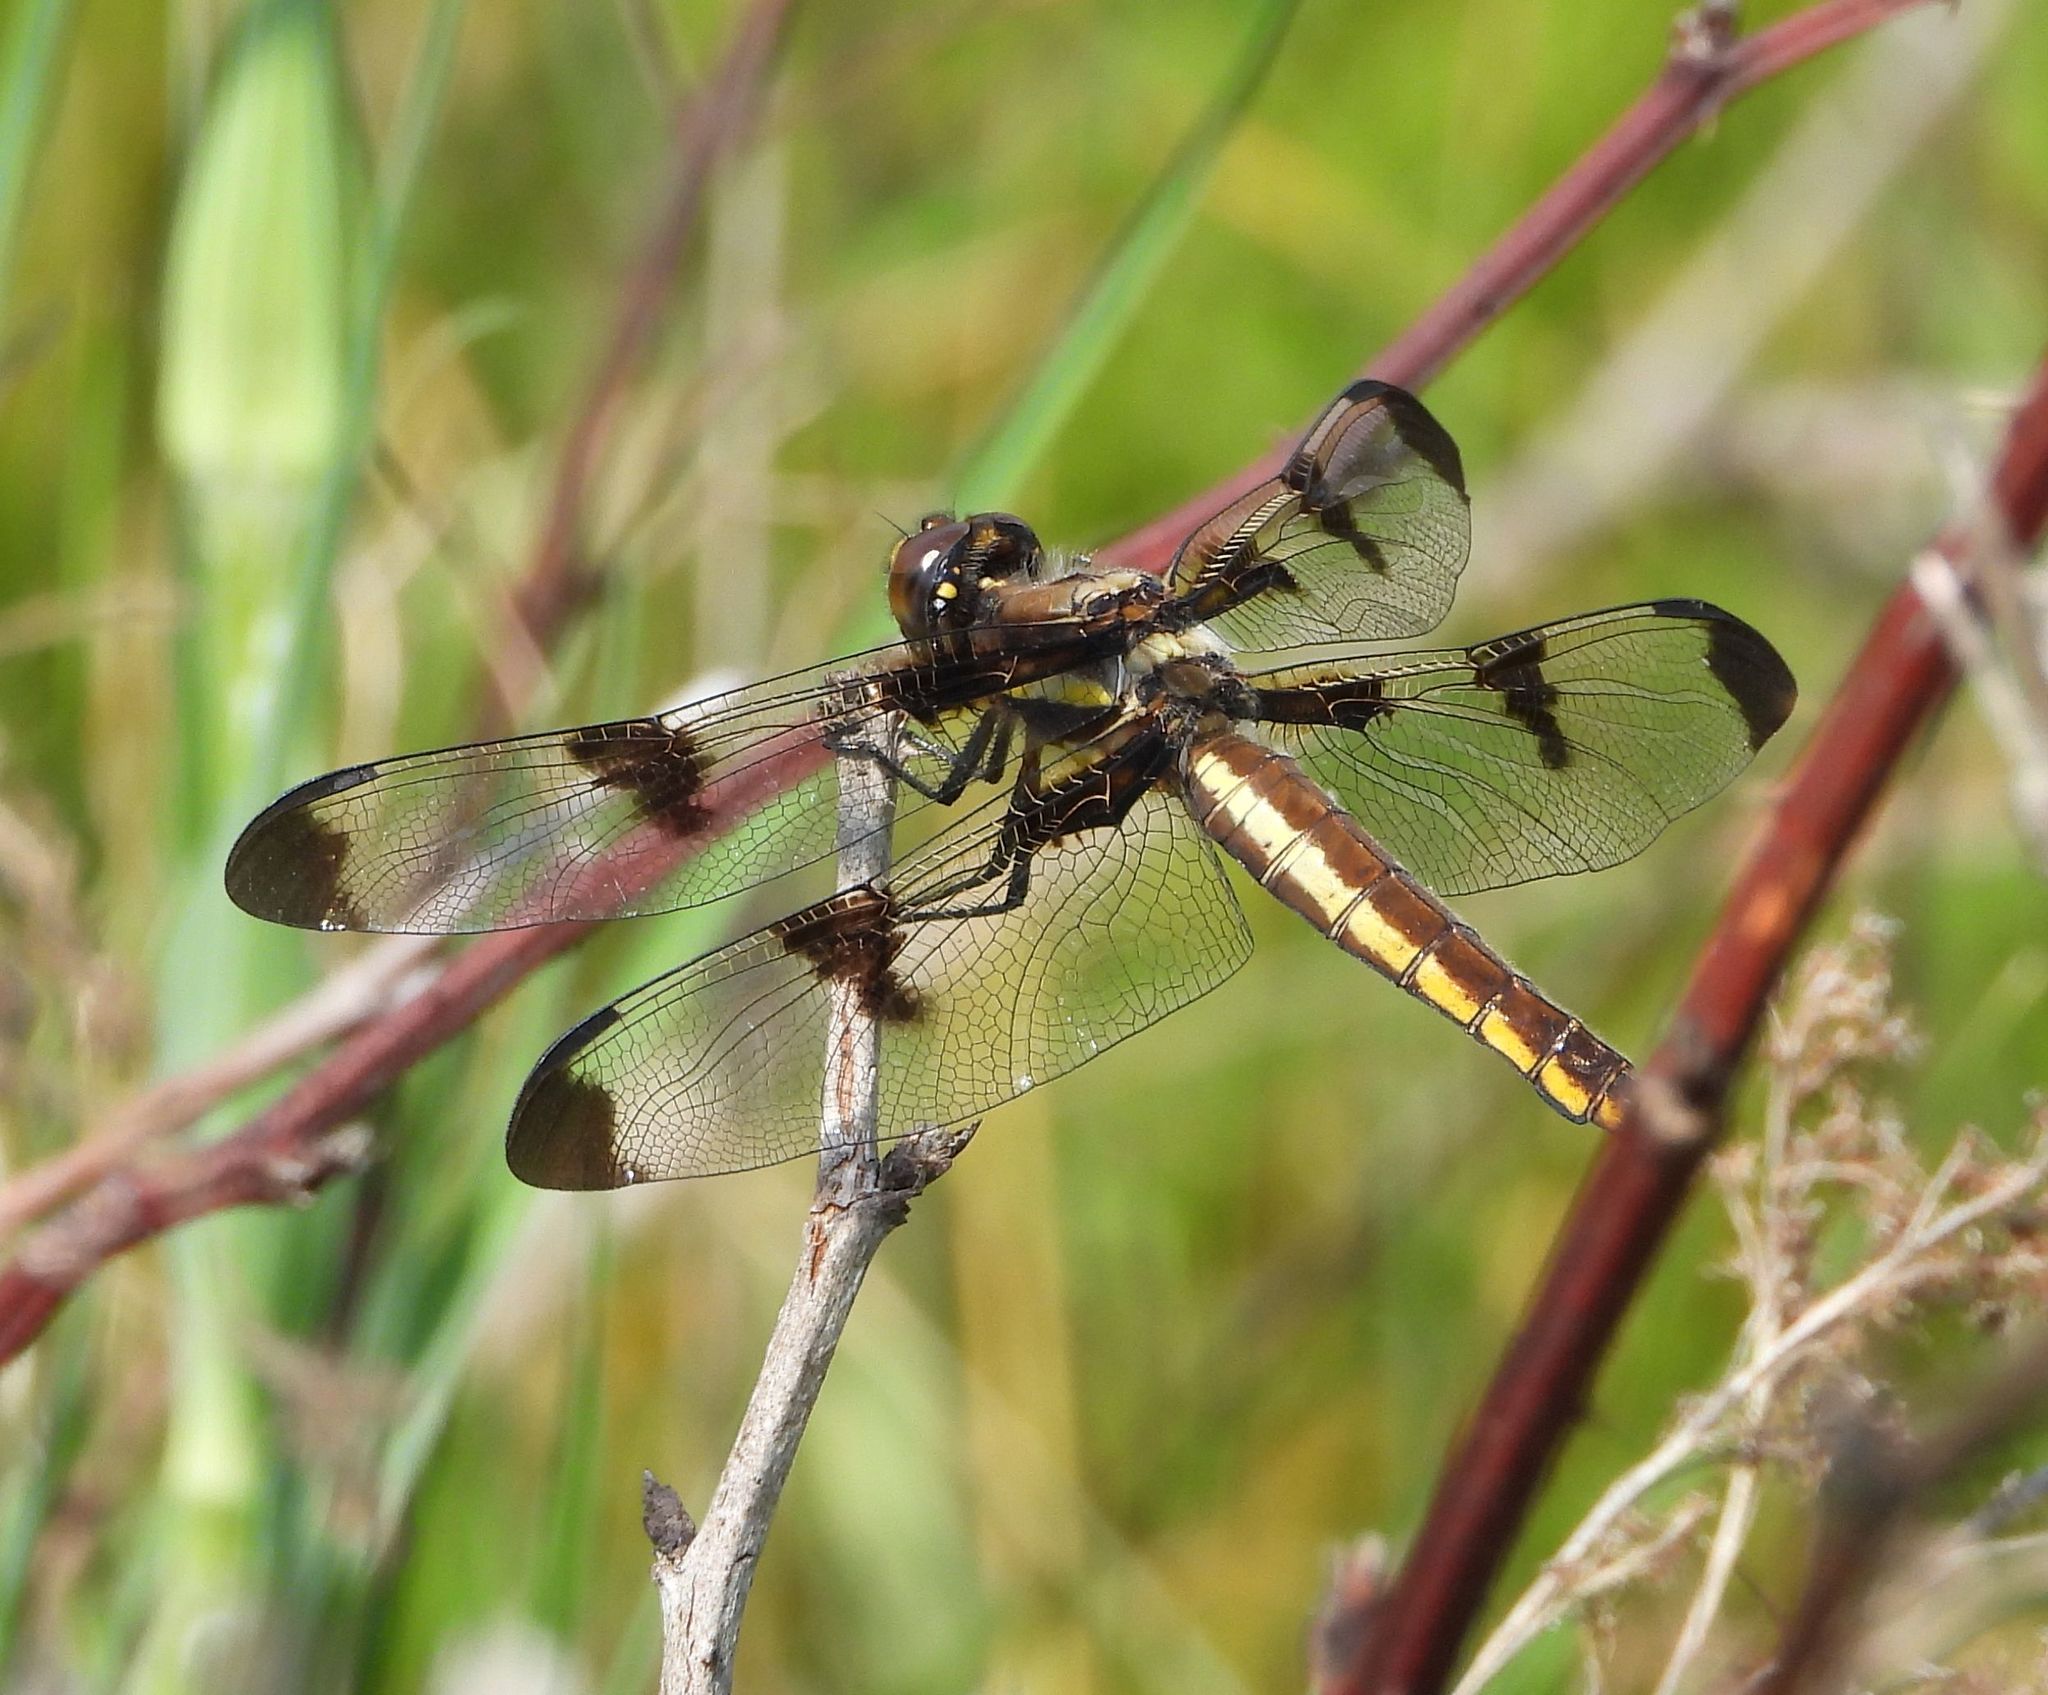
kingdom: Animalia
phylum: Arthropoda
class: Insecta
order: Odonata
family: Libellulidae
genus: Libellula
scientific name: Libellula pulchella
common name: Twelve-spotted skimmer
